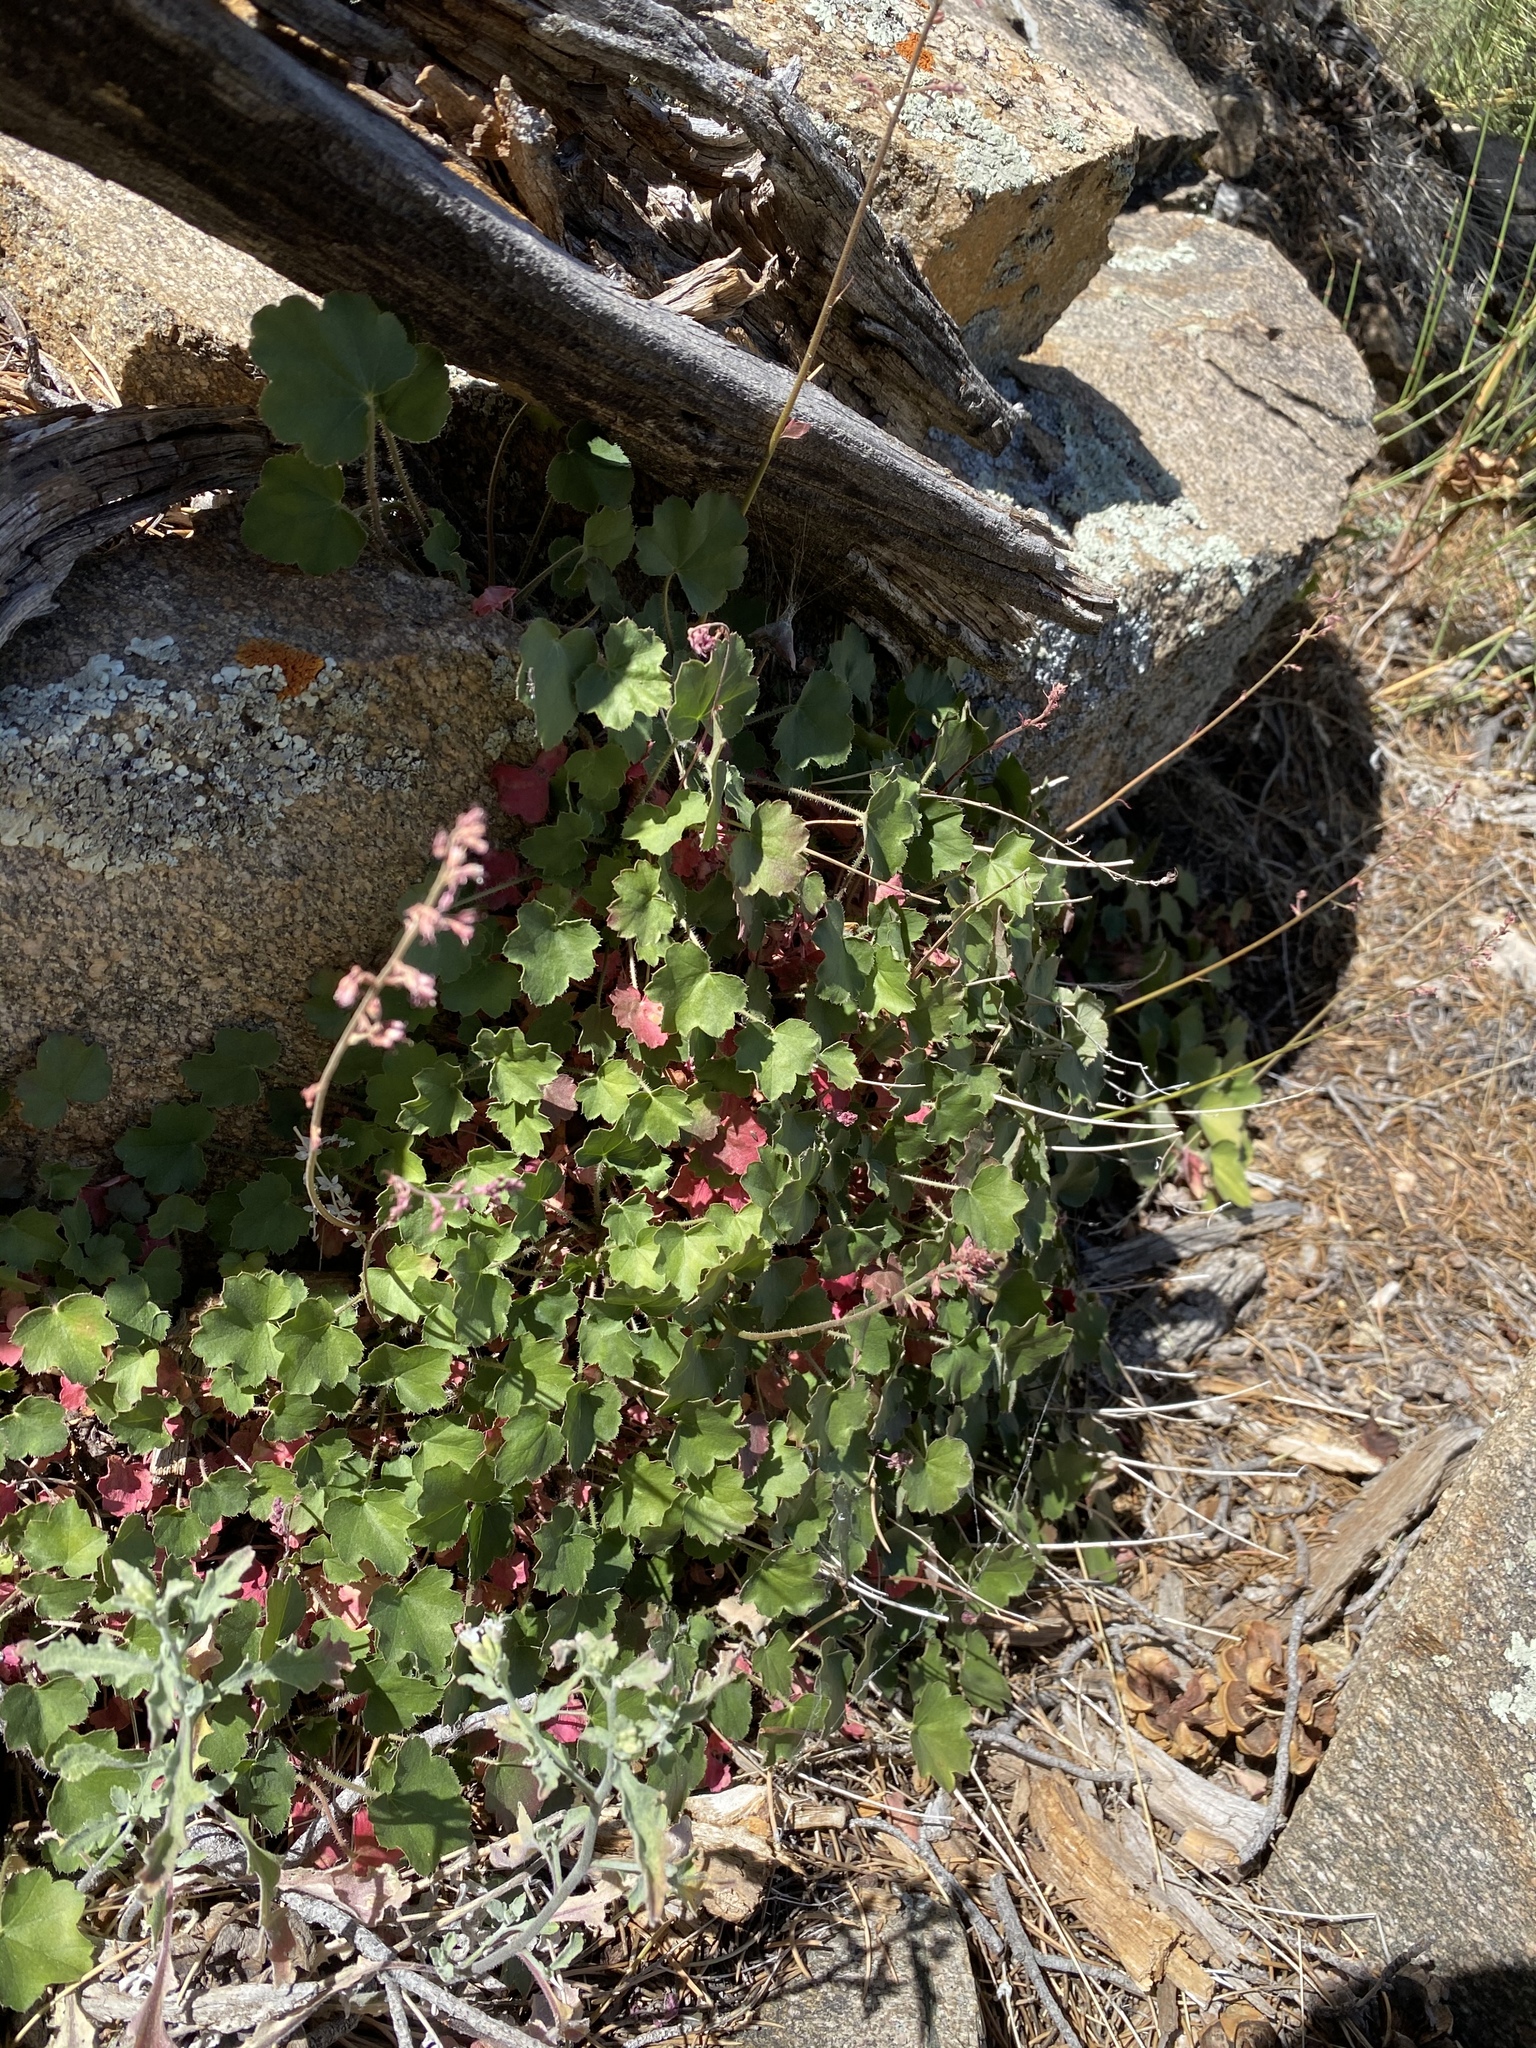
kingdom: Plantae
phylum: Tracheophyta
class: Magnoliopsida
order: Saxifragales
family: Saxifragaceae
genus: Heuchera
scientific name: Heuchera rubescens
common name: Jack-o'the-rocks
